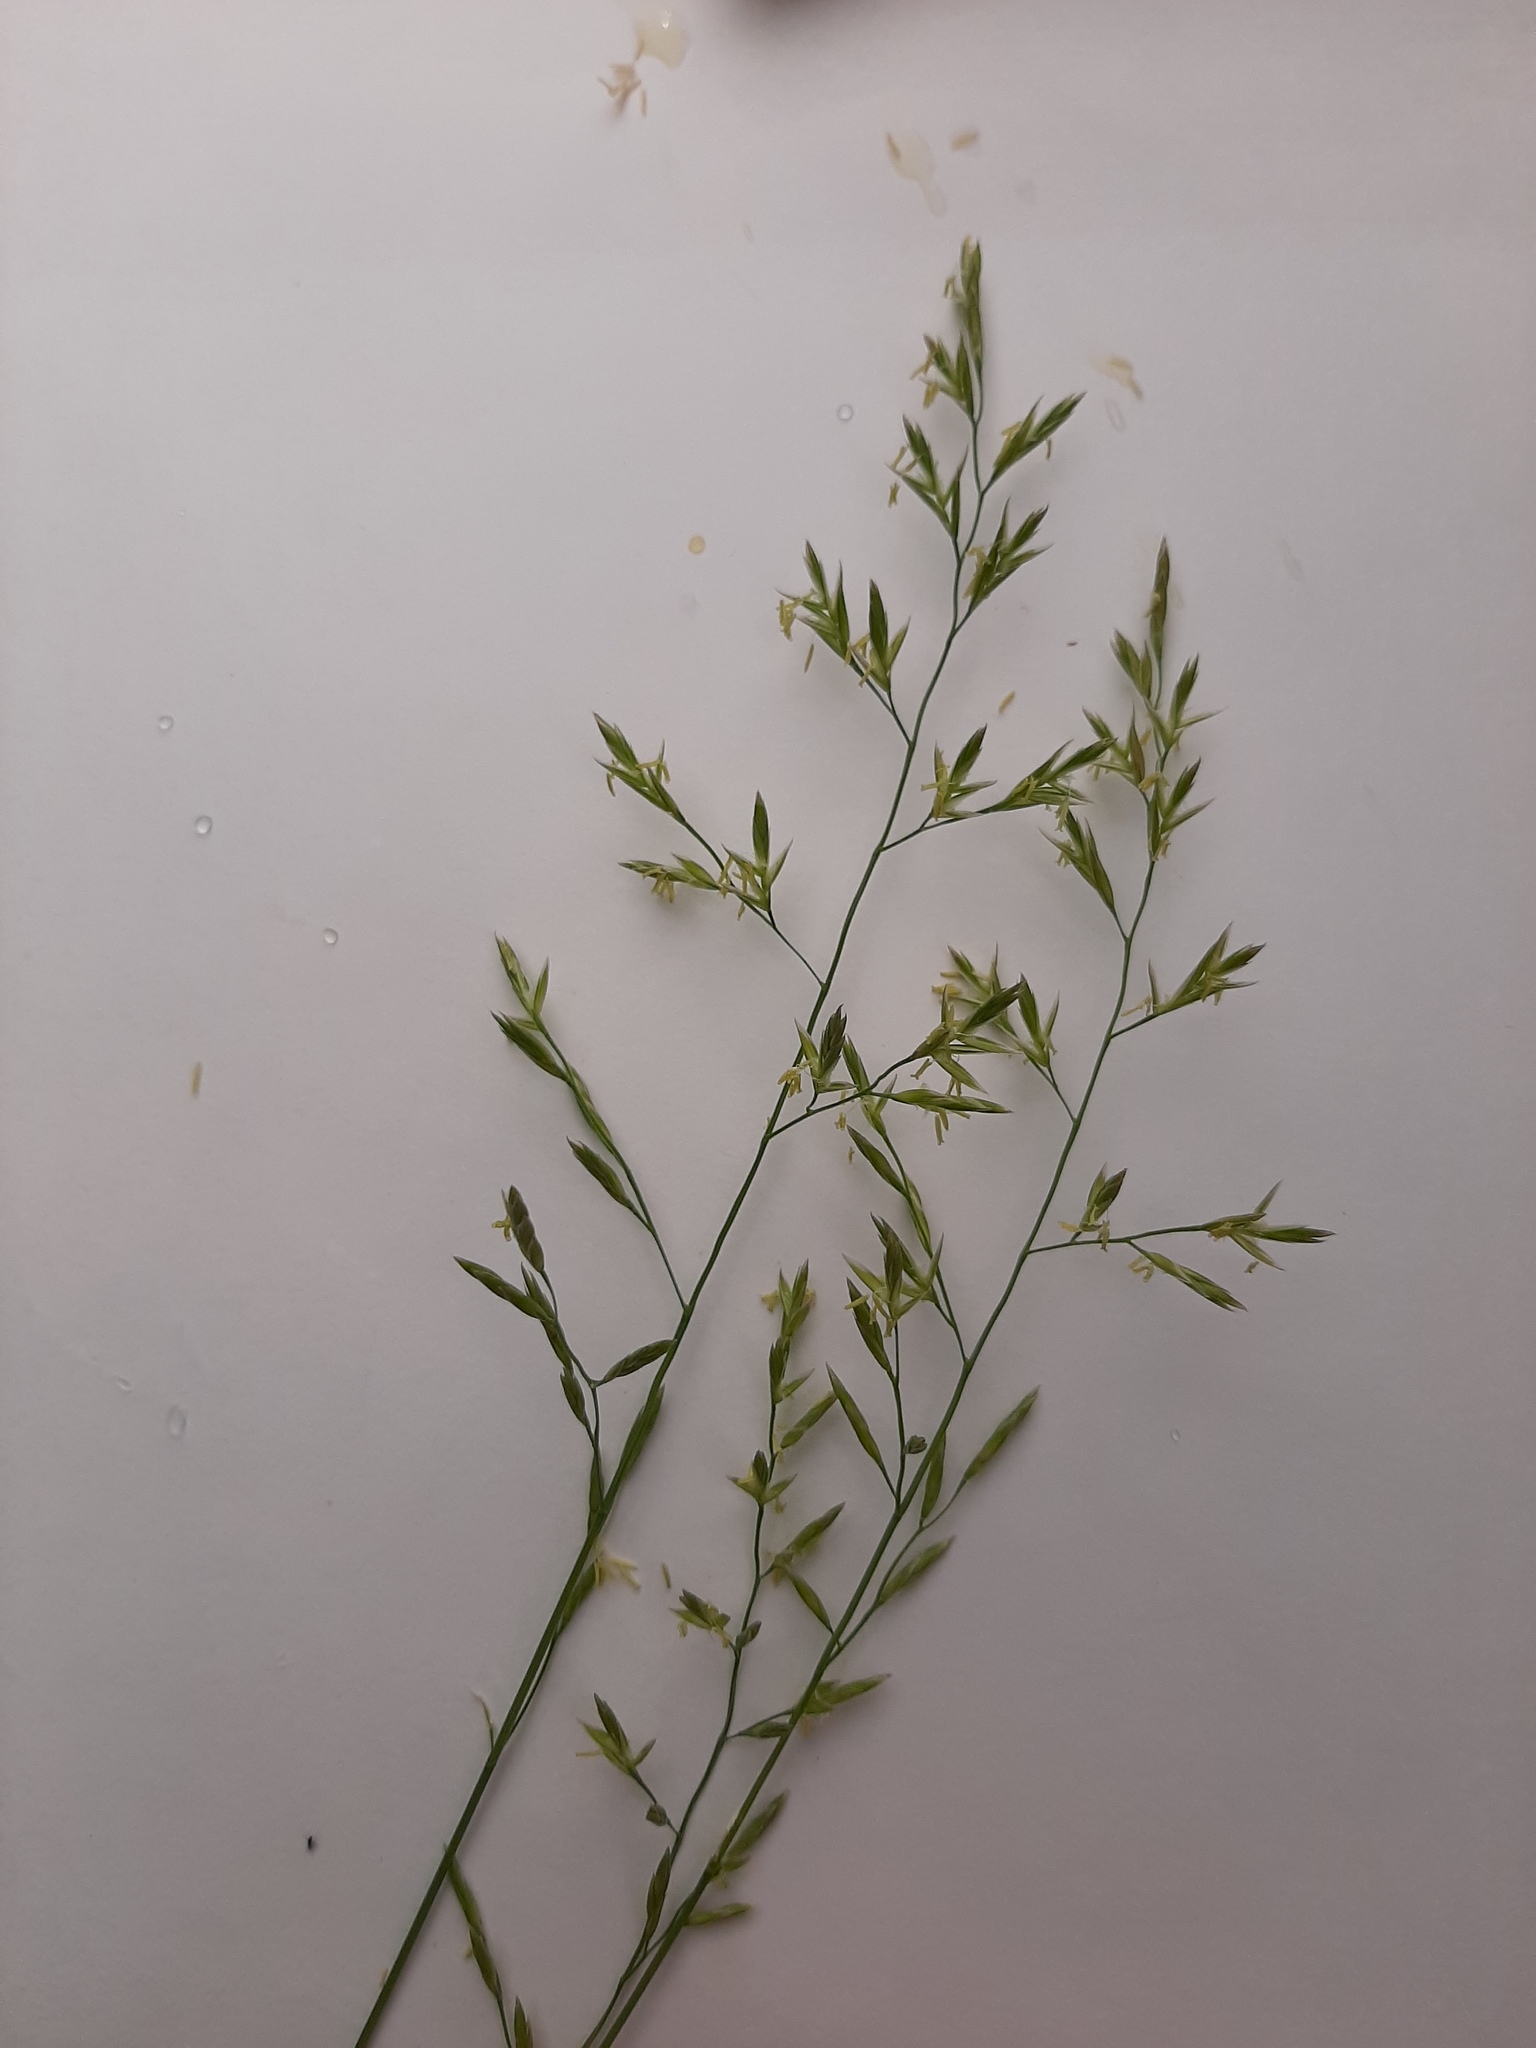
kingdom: Plantae
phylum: Tracheophyta
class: Liliopsida
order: Poales
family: Poaceae
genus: Lolium
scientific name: Lolium pratense
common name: Dover grass
